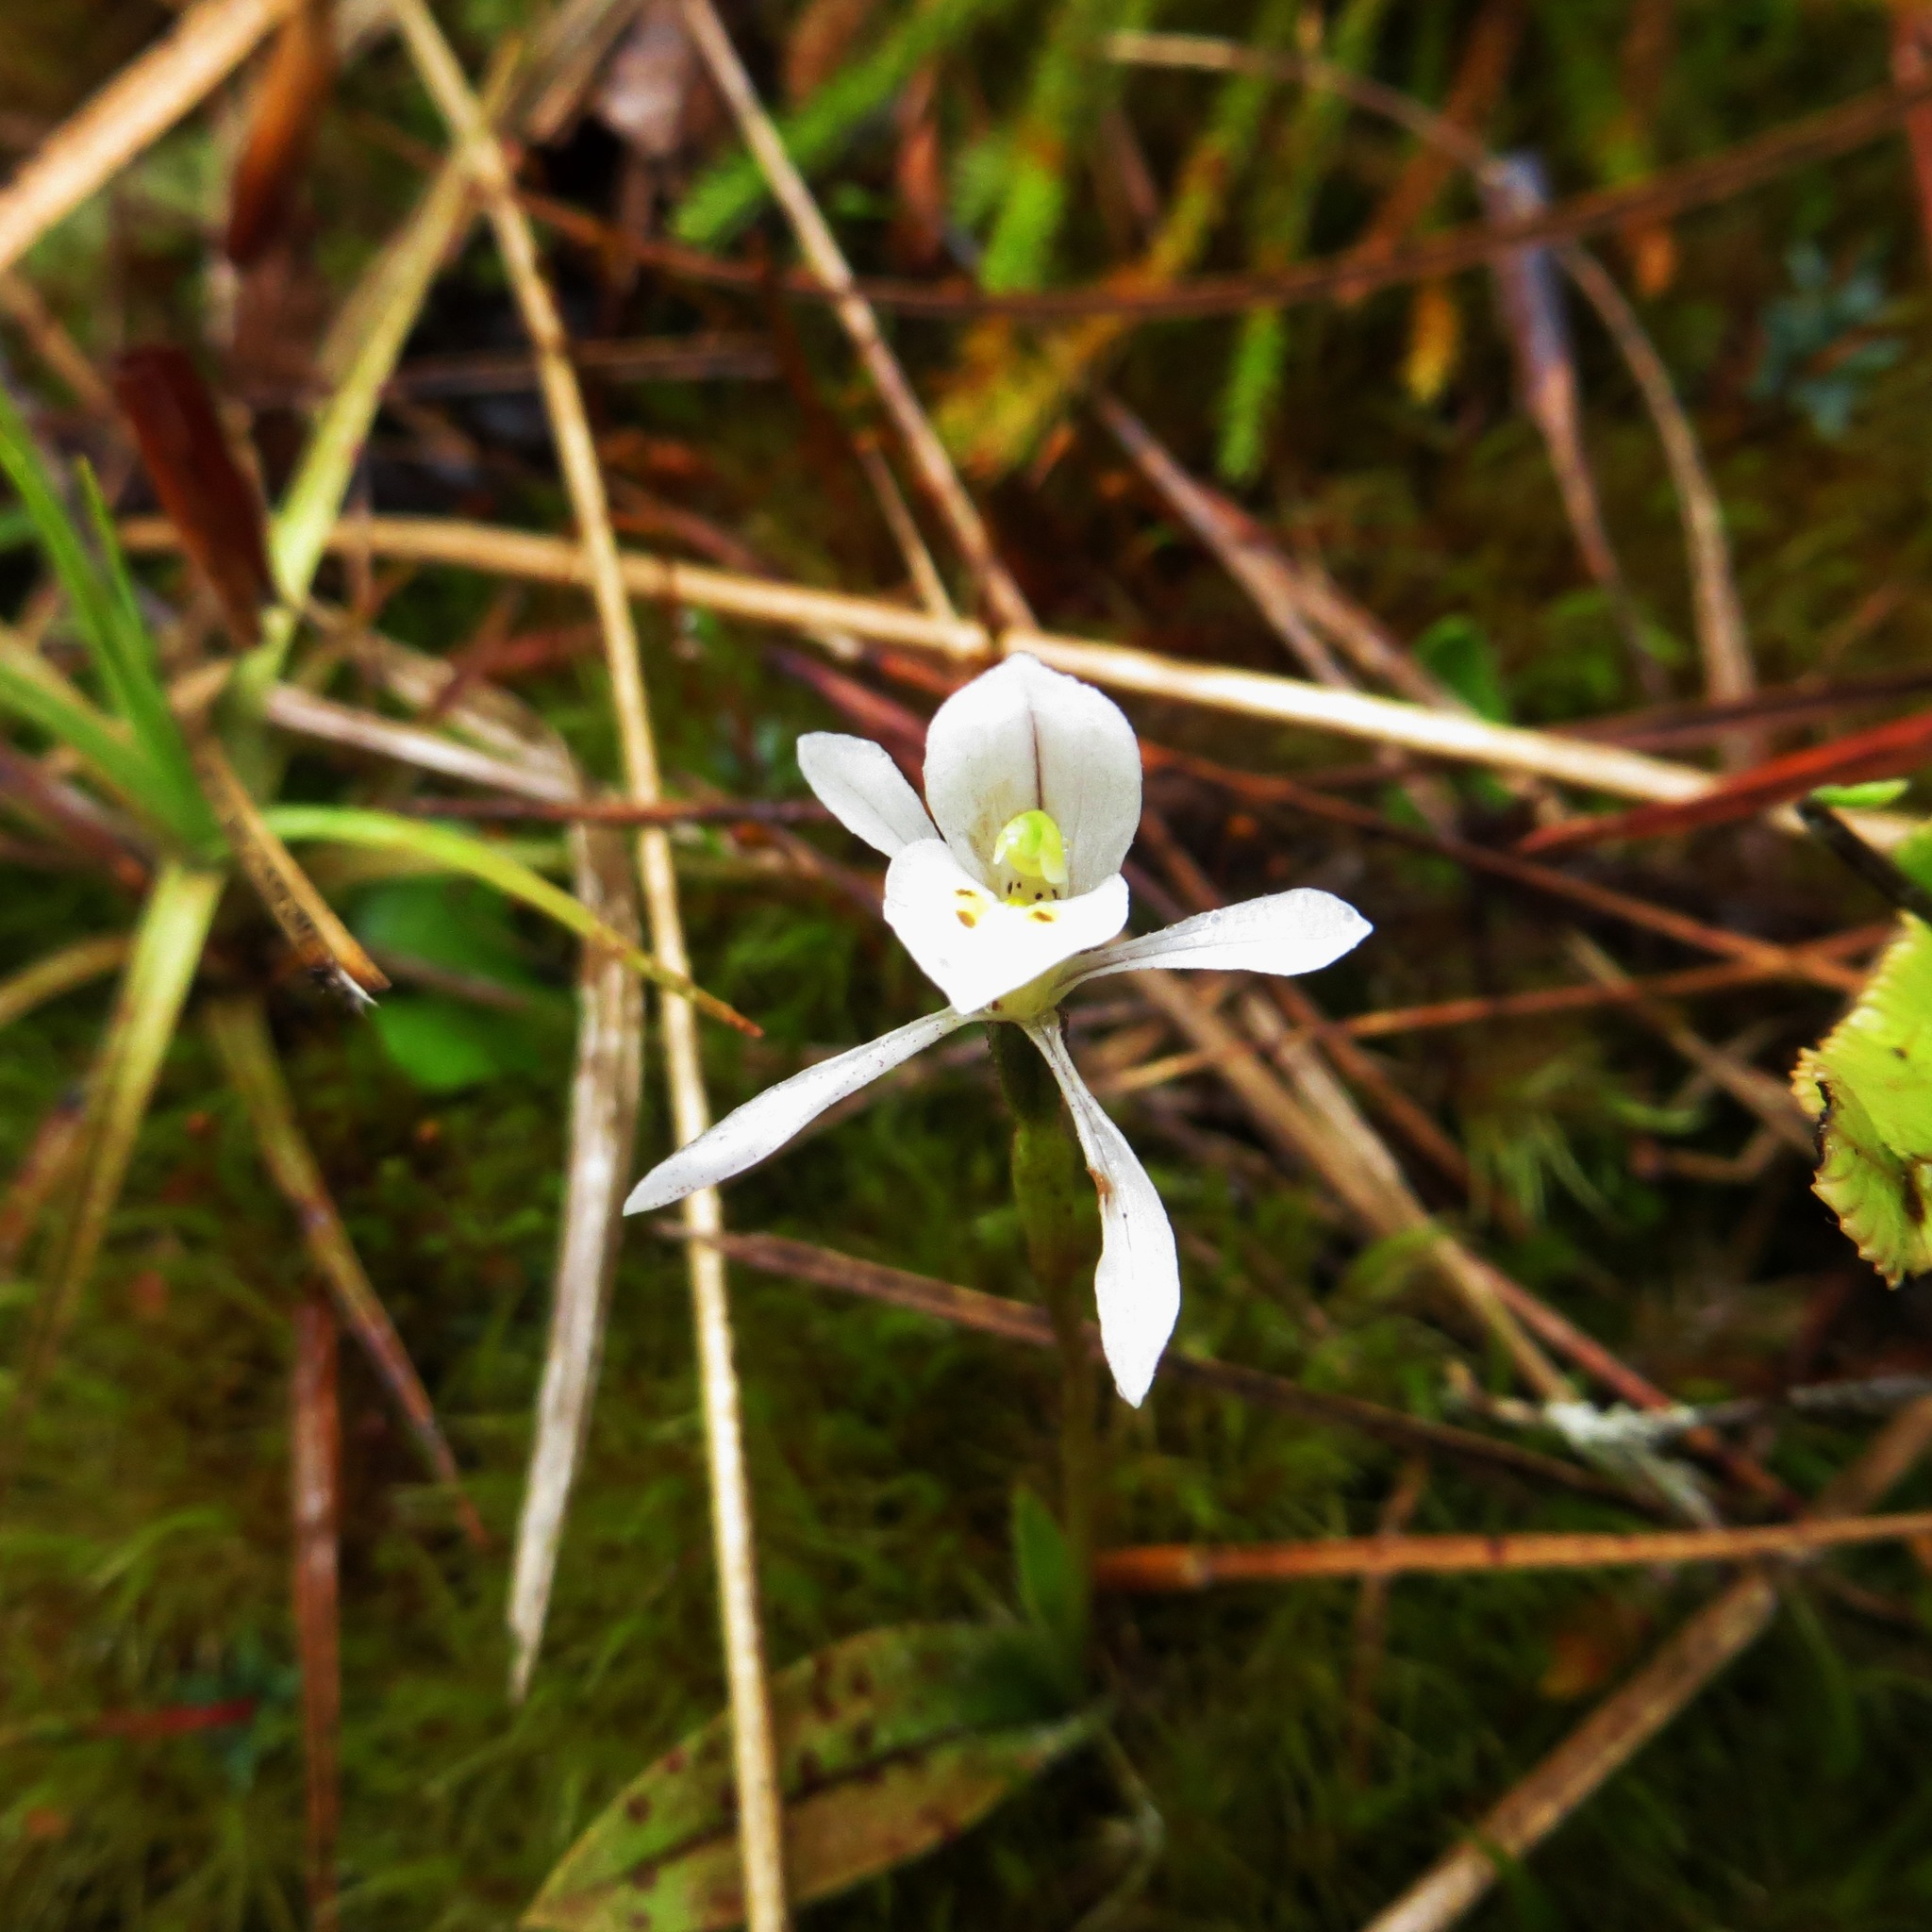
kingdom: Plantae
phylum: Tracheophyta
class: Liliopsida
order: Asparagales
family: Orchidaceae
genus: Aporostylis
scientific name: Aporostylis bifolia
